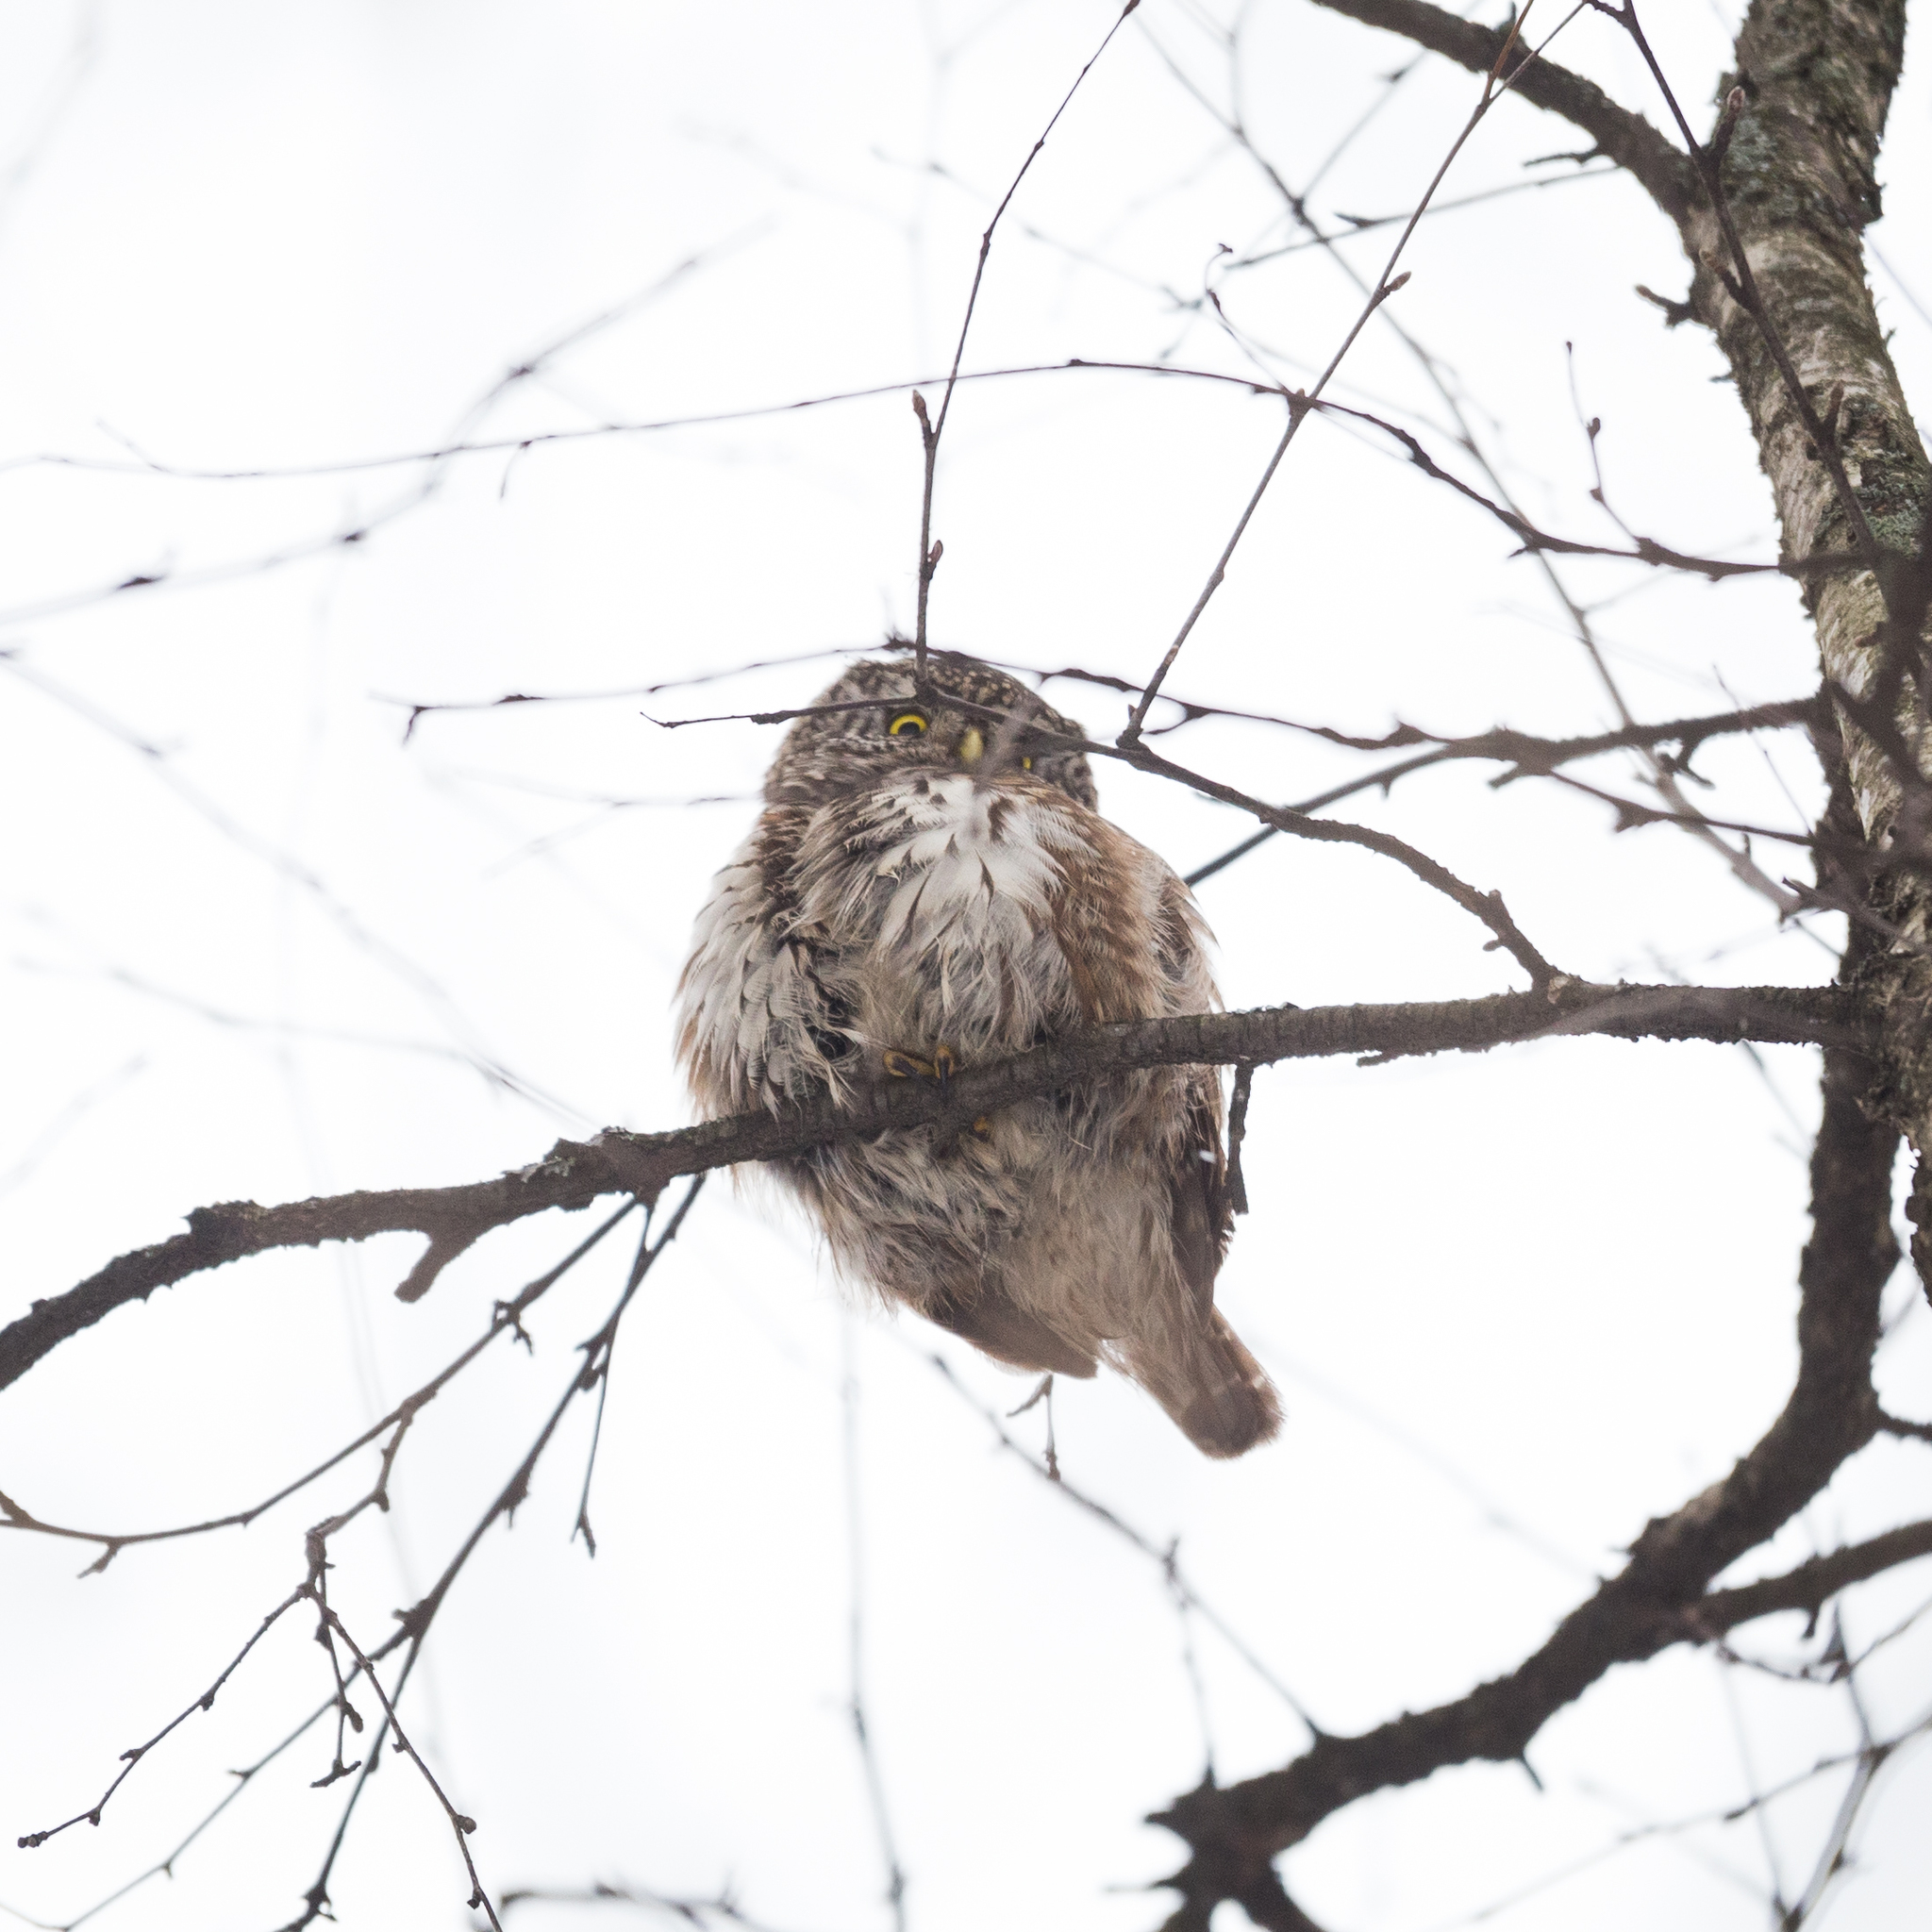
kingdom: Animalia
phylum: Chordata
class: Aves
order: Strigiformes
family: Strigidae
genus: Glaucidium
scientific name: Glaucidium passerinum
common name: Eurasian pygmy owl
